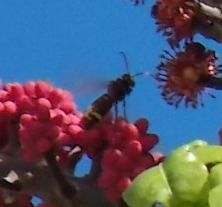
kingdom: Animalia
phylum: Arthropoda
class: Insecta
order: Hymenoptera
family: Vespidae
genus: Vespa
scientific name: Vespa orientalis
